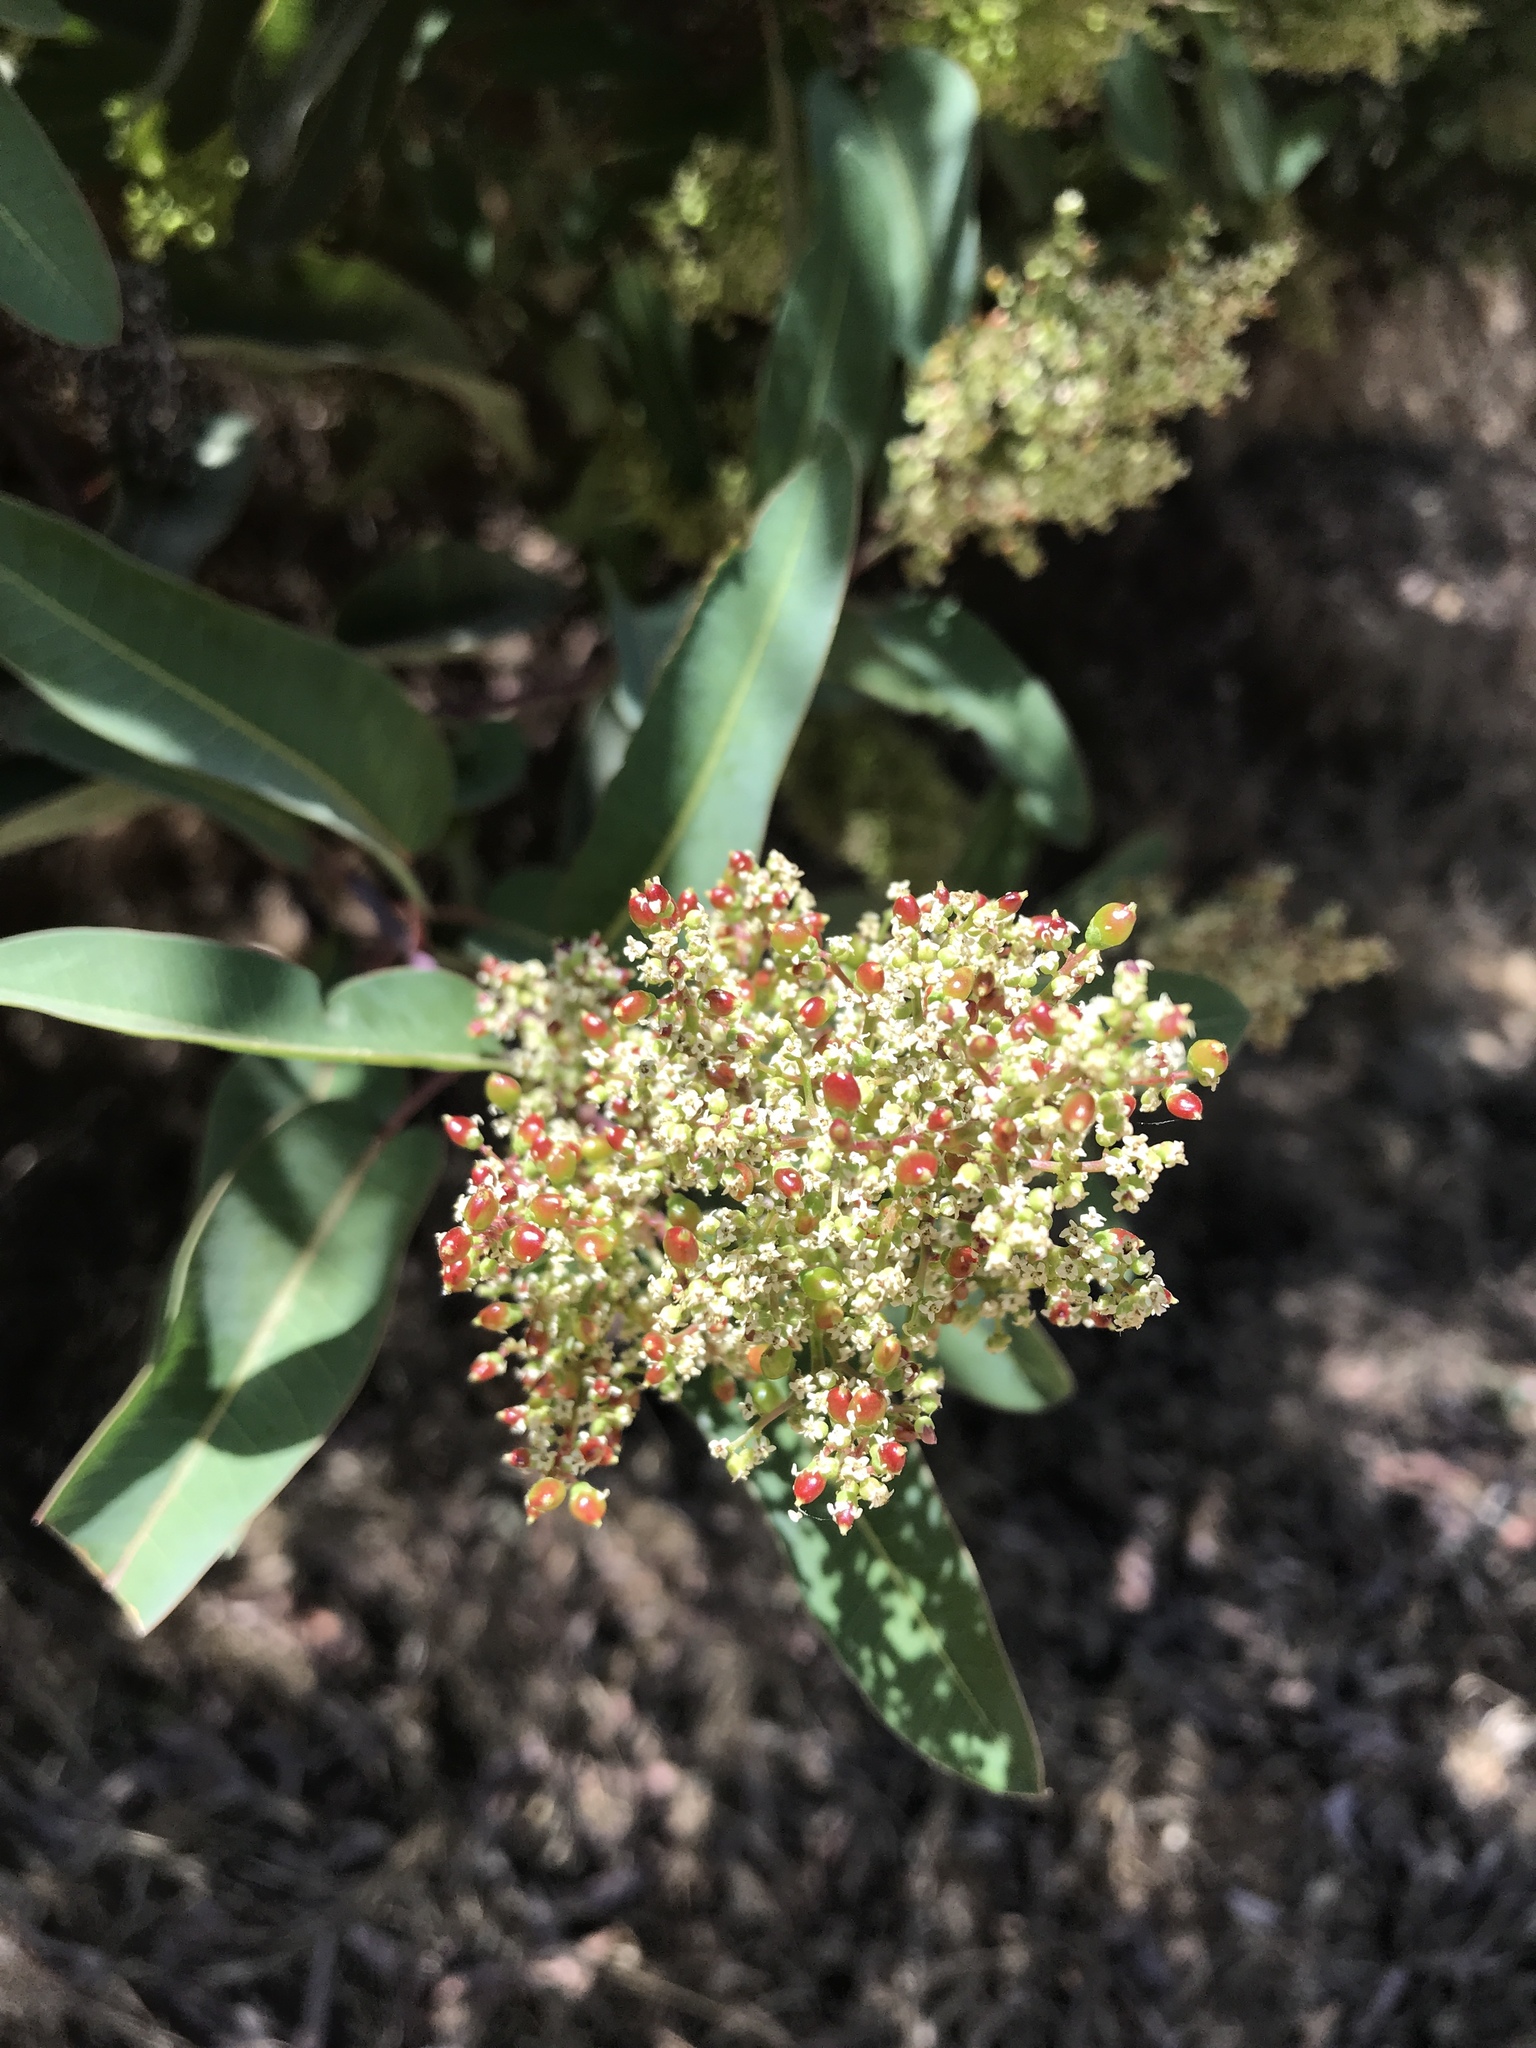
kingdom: Plantae
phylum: Tracheophyta
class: Magnoliopsida
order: Sapindales
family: Anacardiaceae
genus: Malosma
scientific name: Malosma laurina
